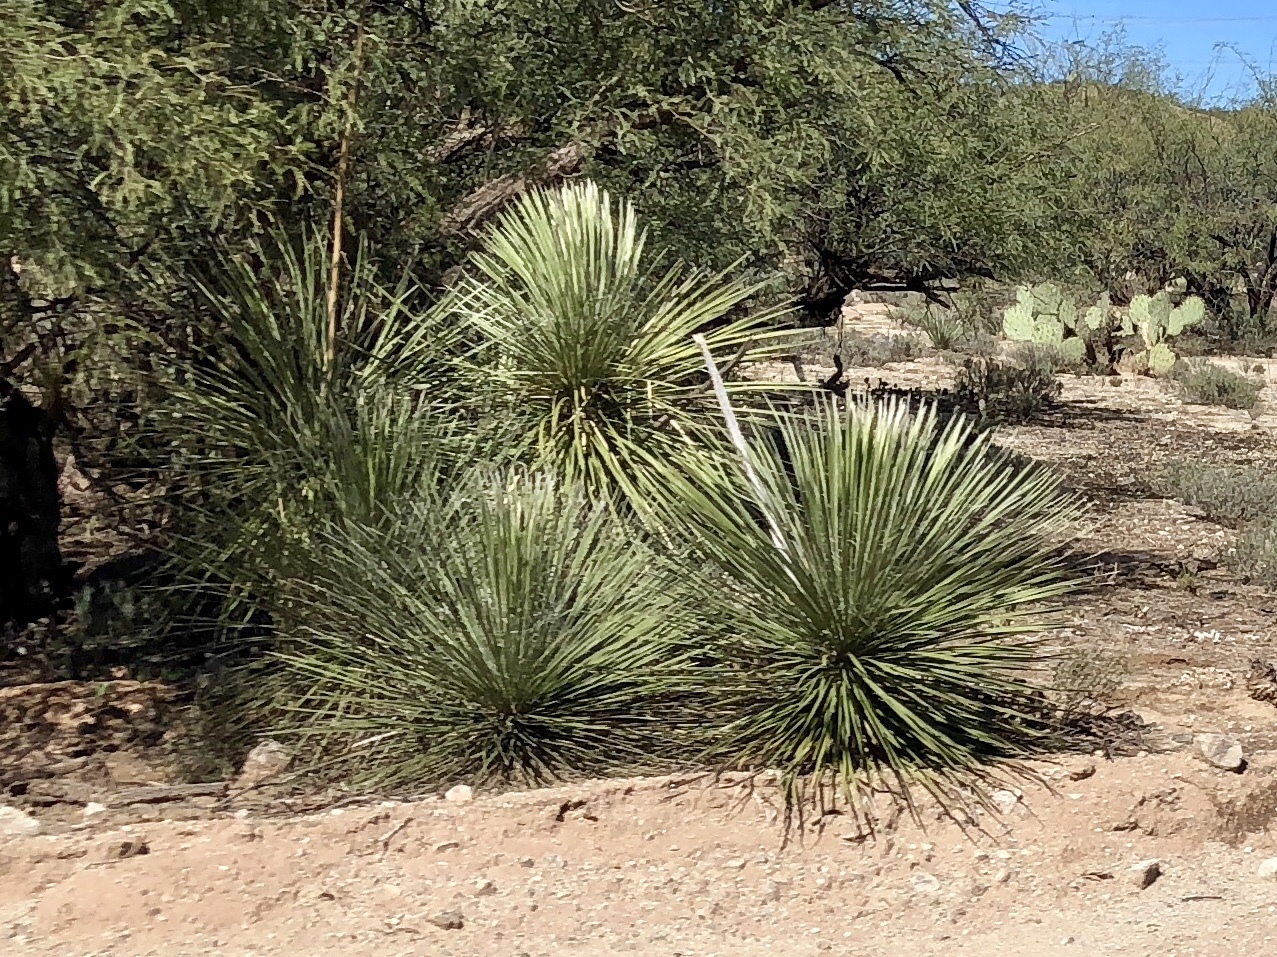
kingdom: Plantae
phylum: Tracheophyta
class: Liliopsida
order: Asparagales
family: Asparagaceae
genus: Yucca
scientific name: Yucca elata
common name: Palmella
